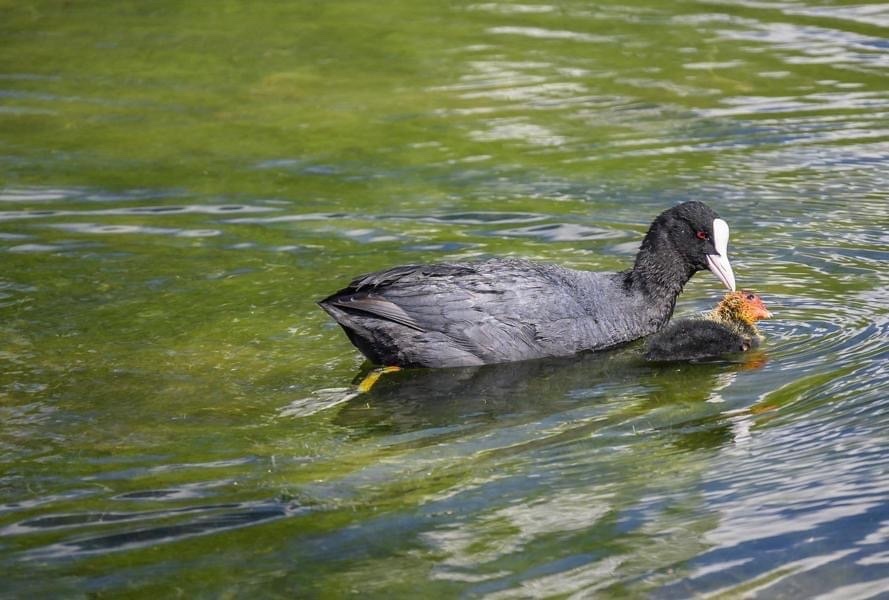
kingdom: Animalia
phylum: Chordata
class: Aves
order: Gruiformes
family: Rallidae
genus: Fulica
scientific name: Fulica atra
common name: Eurasian coot
